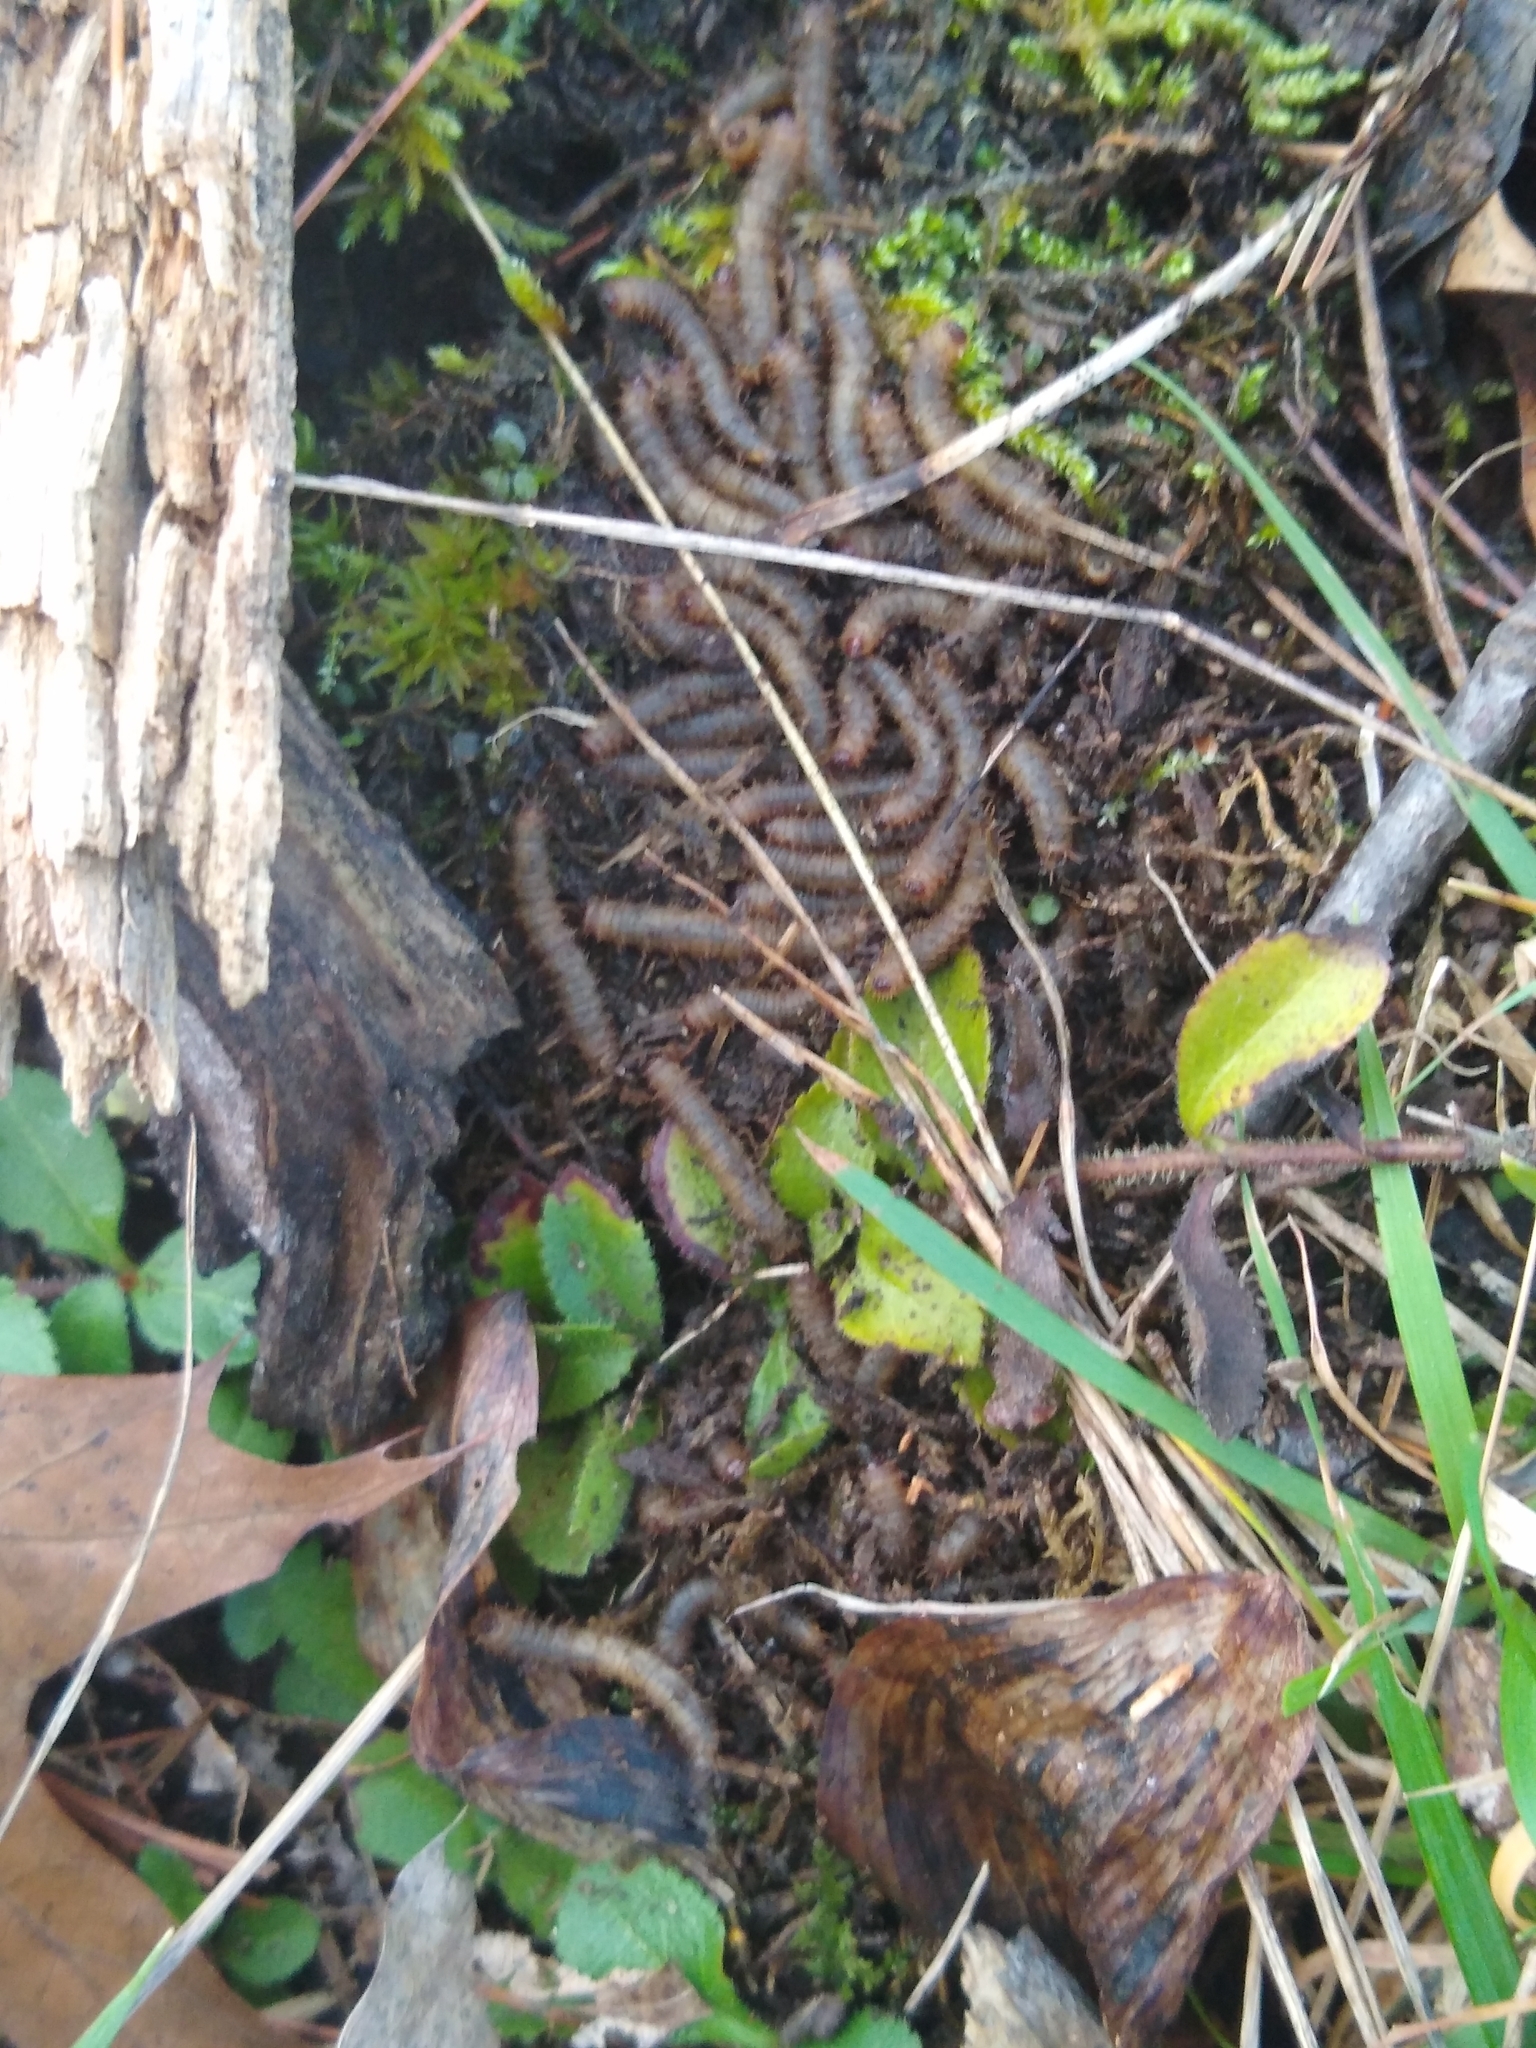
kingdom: Animalia
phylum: Arthropoda
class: Insecta
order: Diptera
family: Bibionidae
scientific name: Bibionidae
